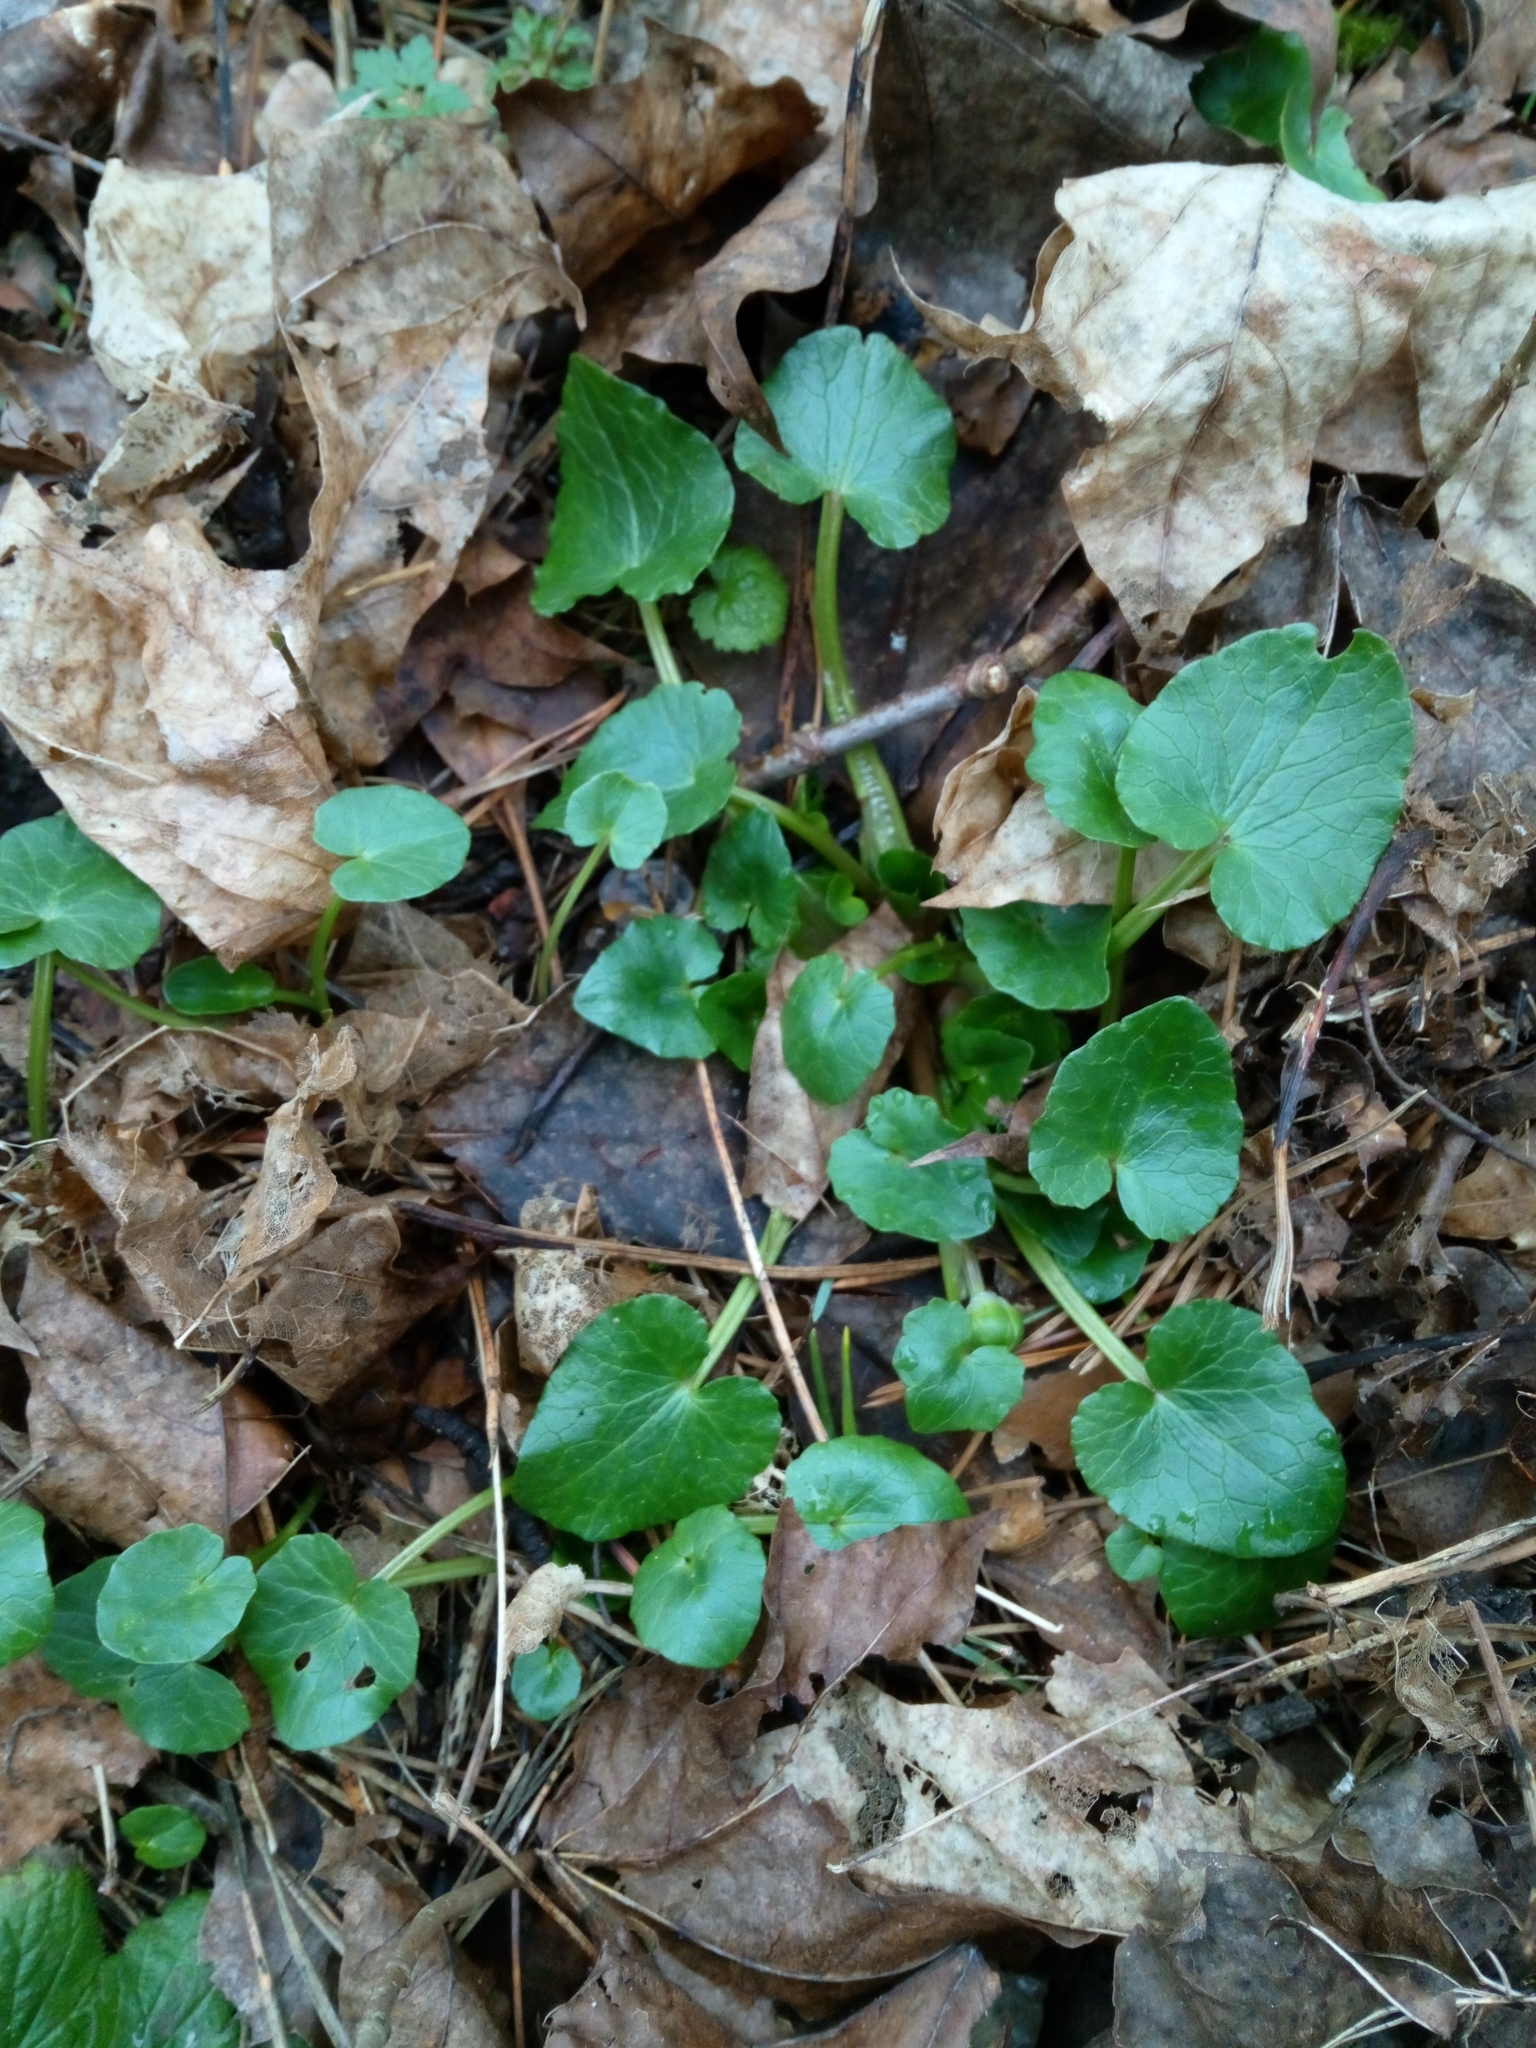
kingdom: Plantae
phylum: Tracheophyta
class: Magnoliopsida
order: Ranunculales
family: Ranunculaceae
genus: Ficaria
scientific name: Ficaria verna
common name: Lesser celandine
